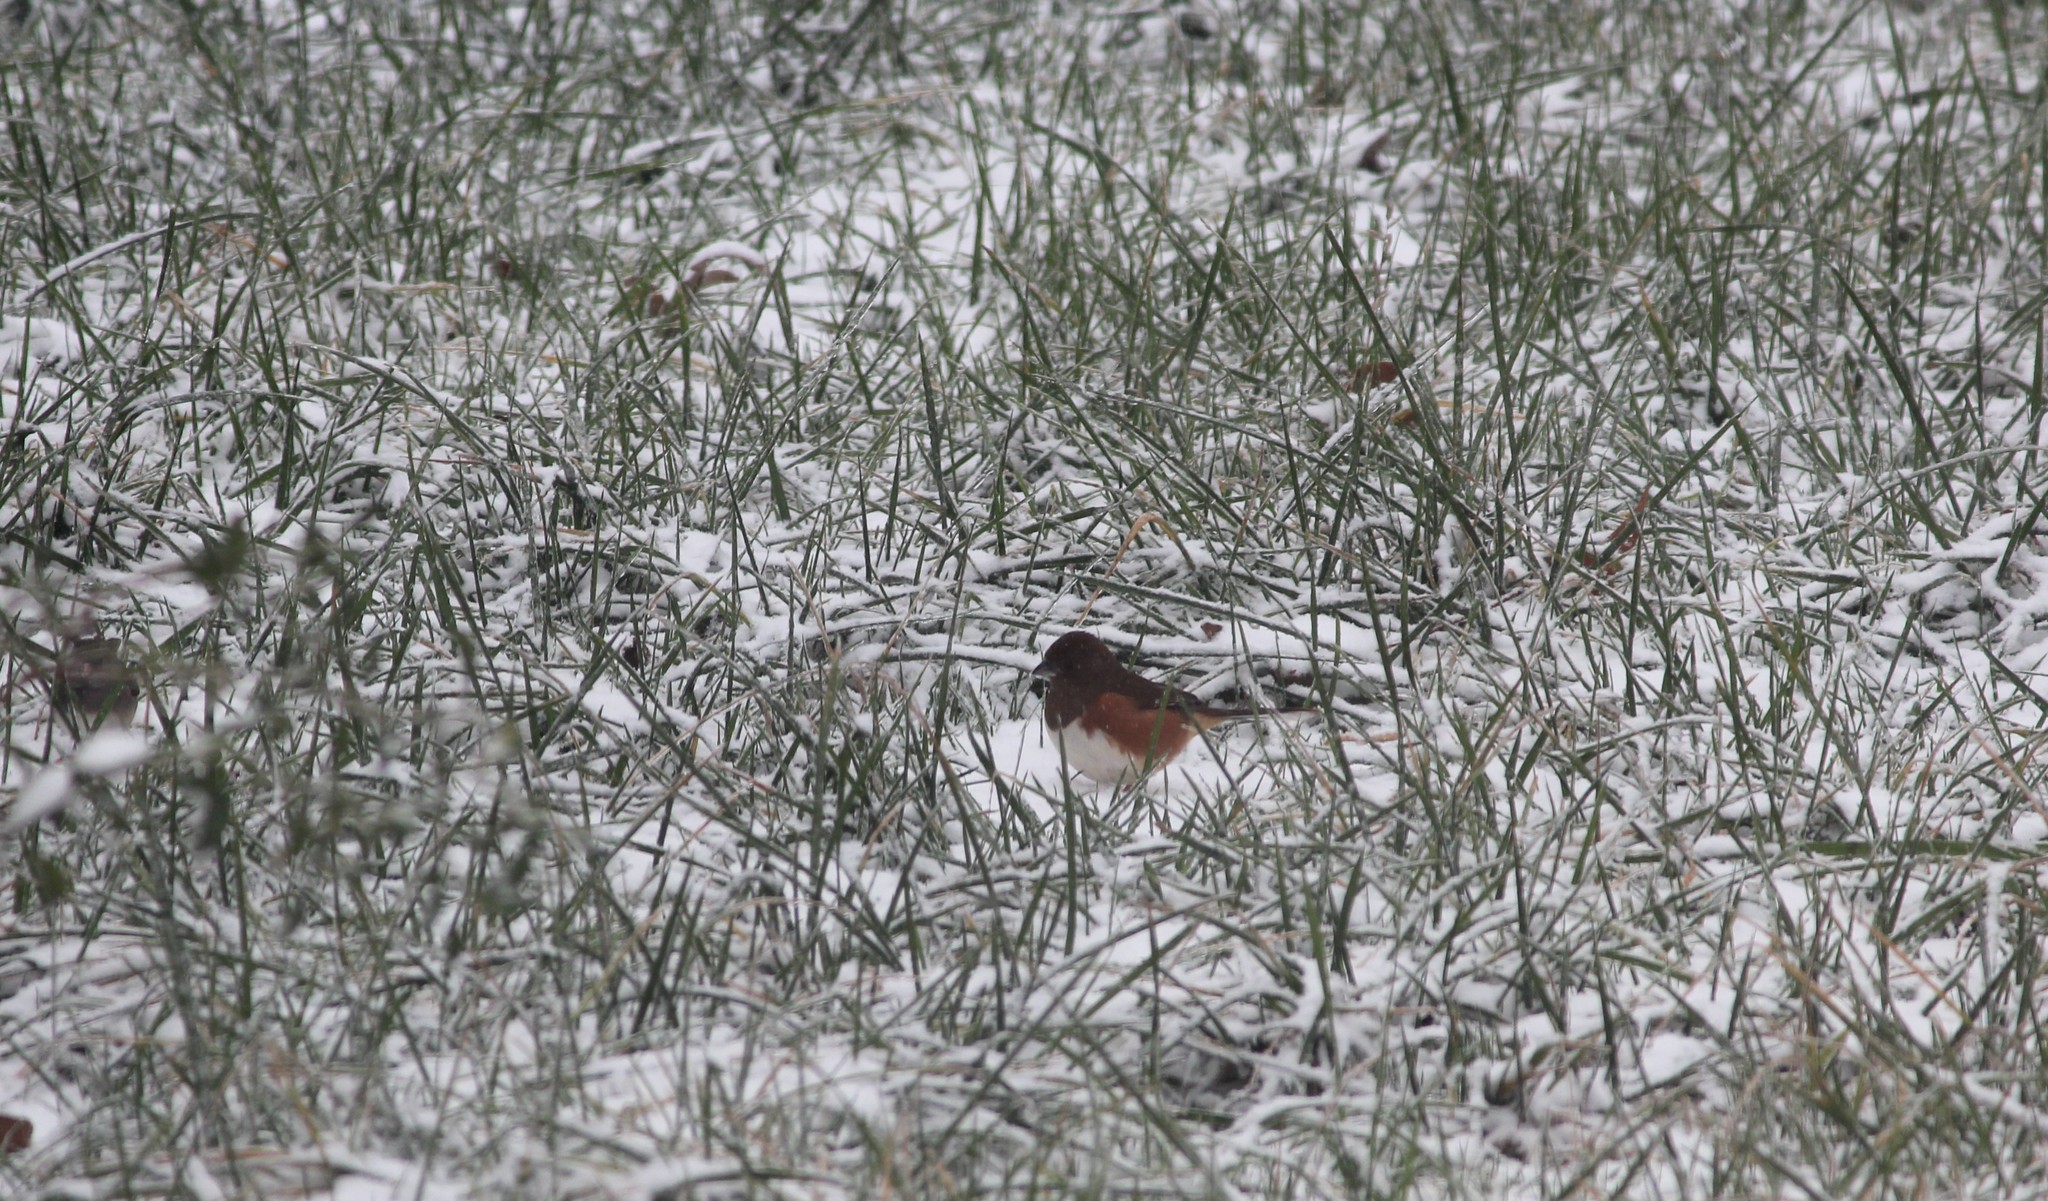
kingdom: Animalia
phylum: Chordata
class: Aves
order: Passeriformes
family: Passerellidae
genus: Pipilo
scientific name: Pipilo erythrophthalmus
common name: Eastern towhee
